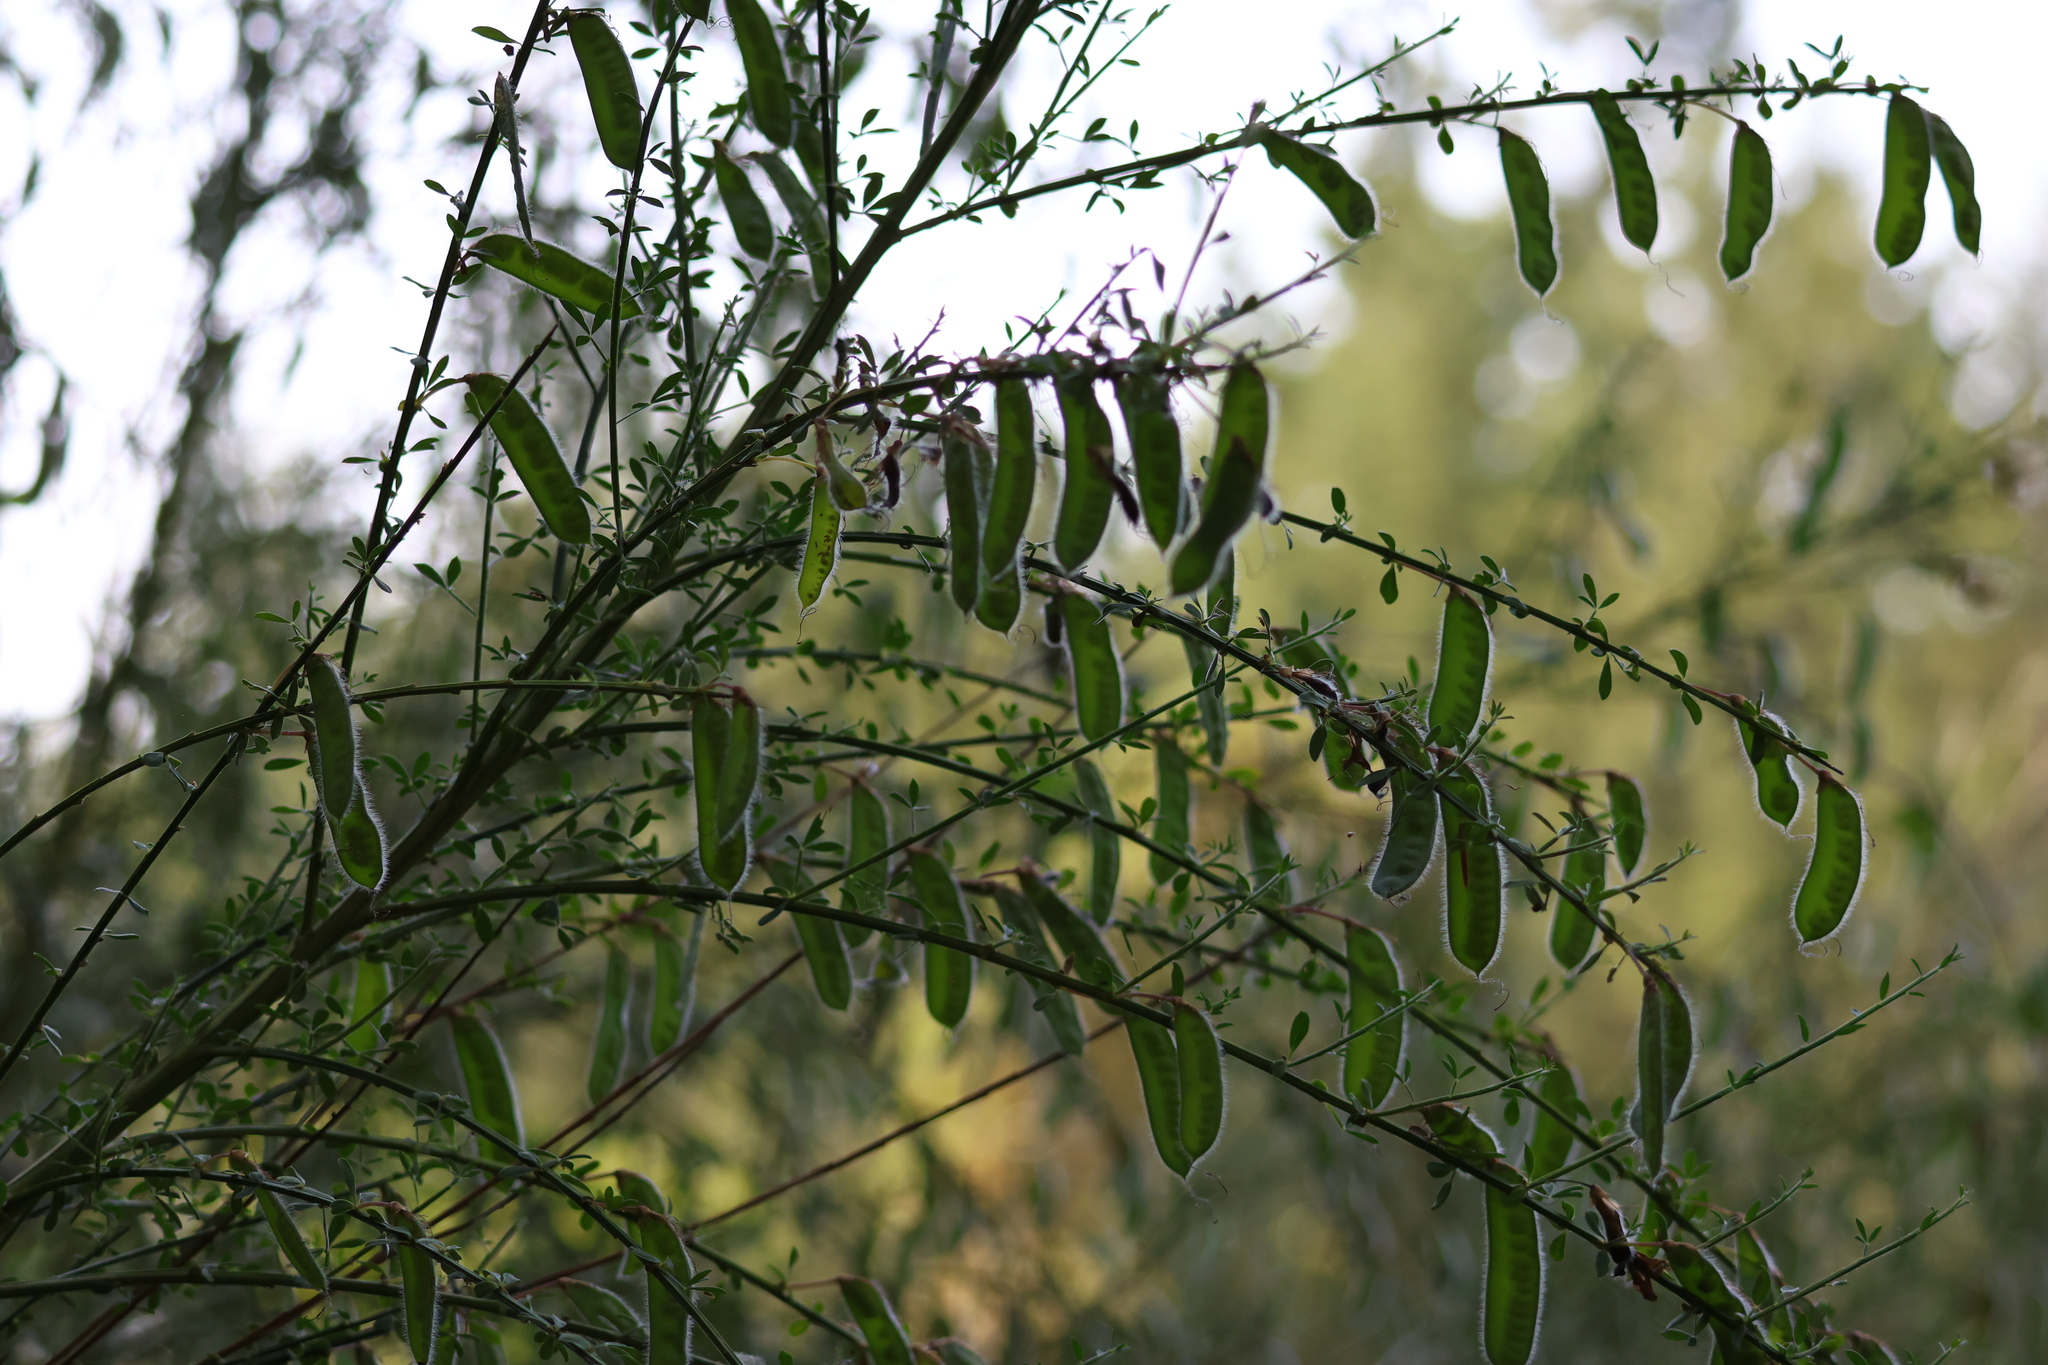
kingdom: Plantae
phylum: Tracheophyta
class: Magnoliopsida
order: Fabales
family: Fabaceae
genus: Cytisus
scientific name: Cytisus scoparius
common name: Scotch broom
